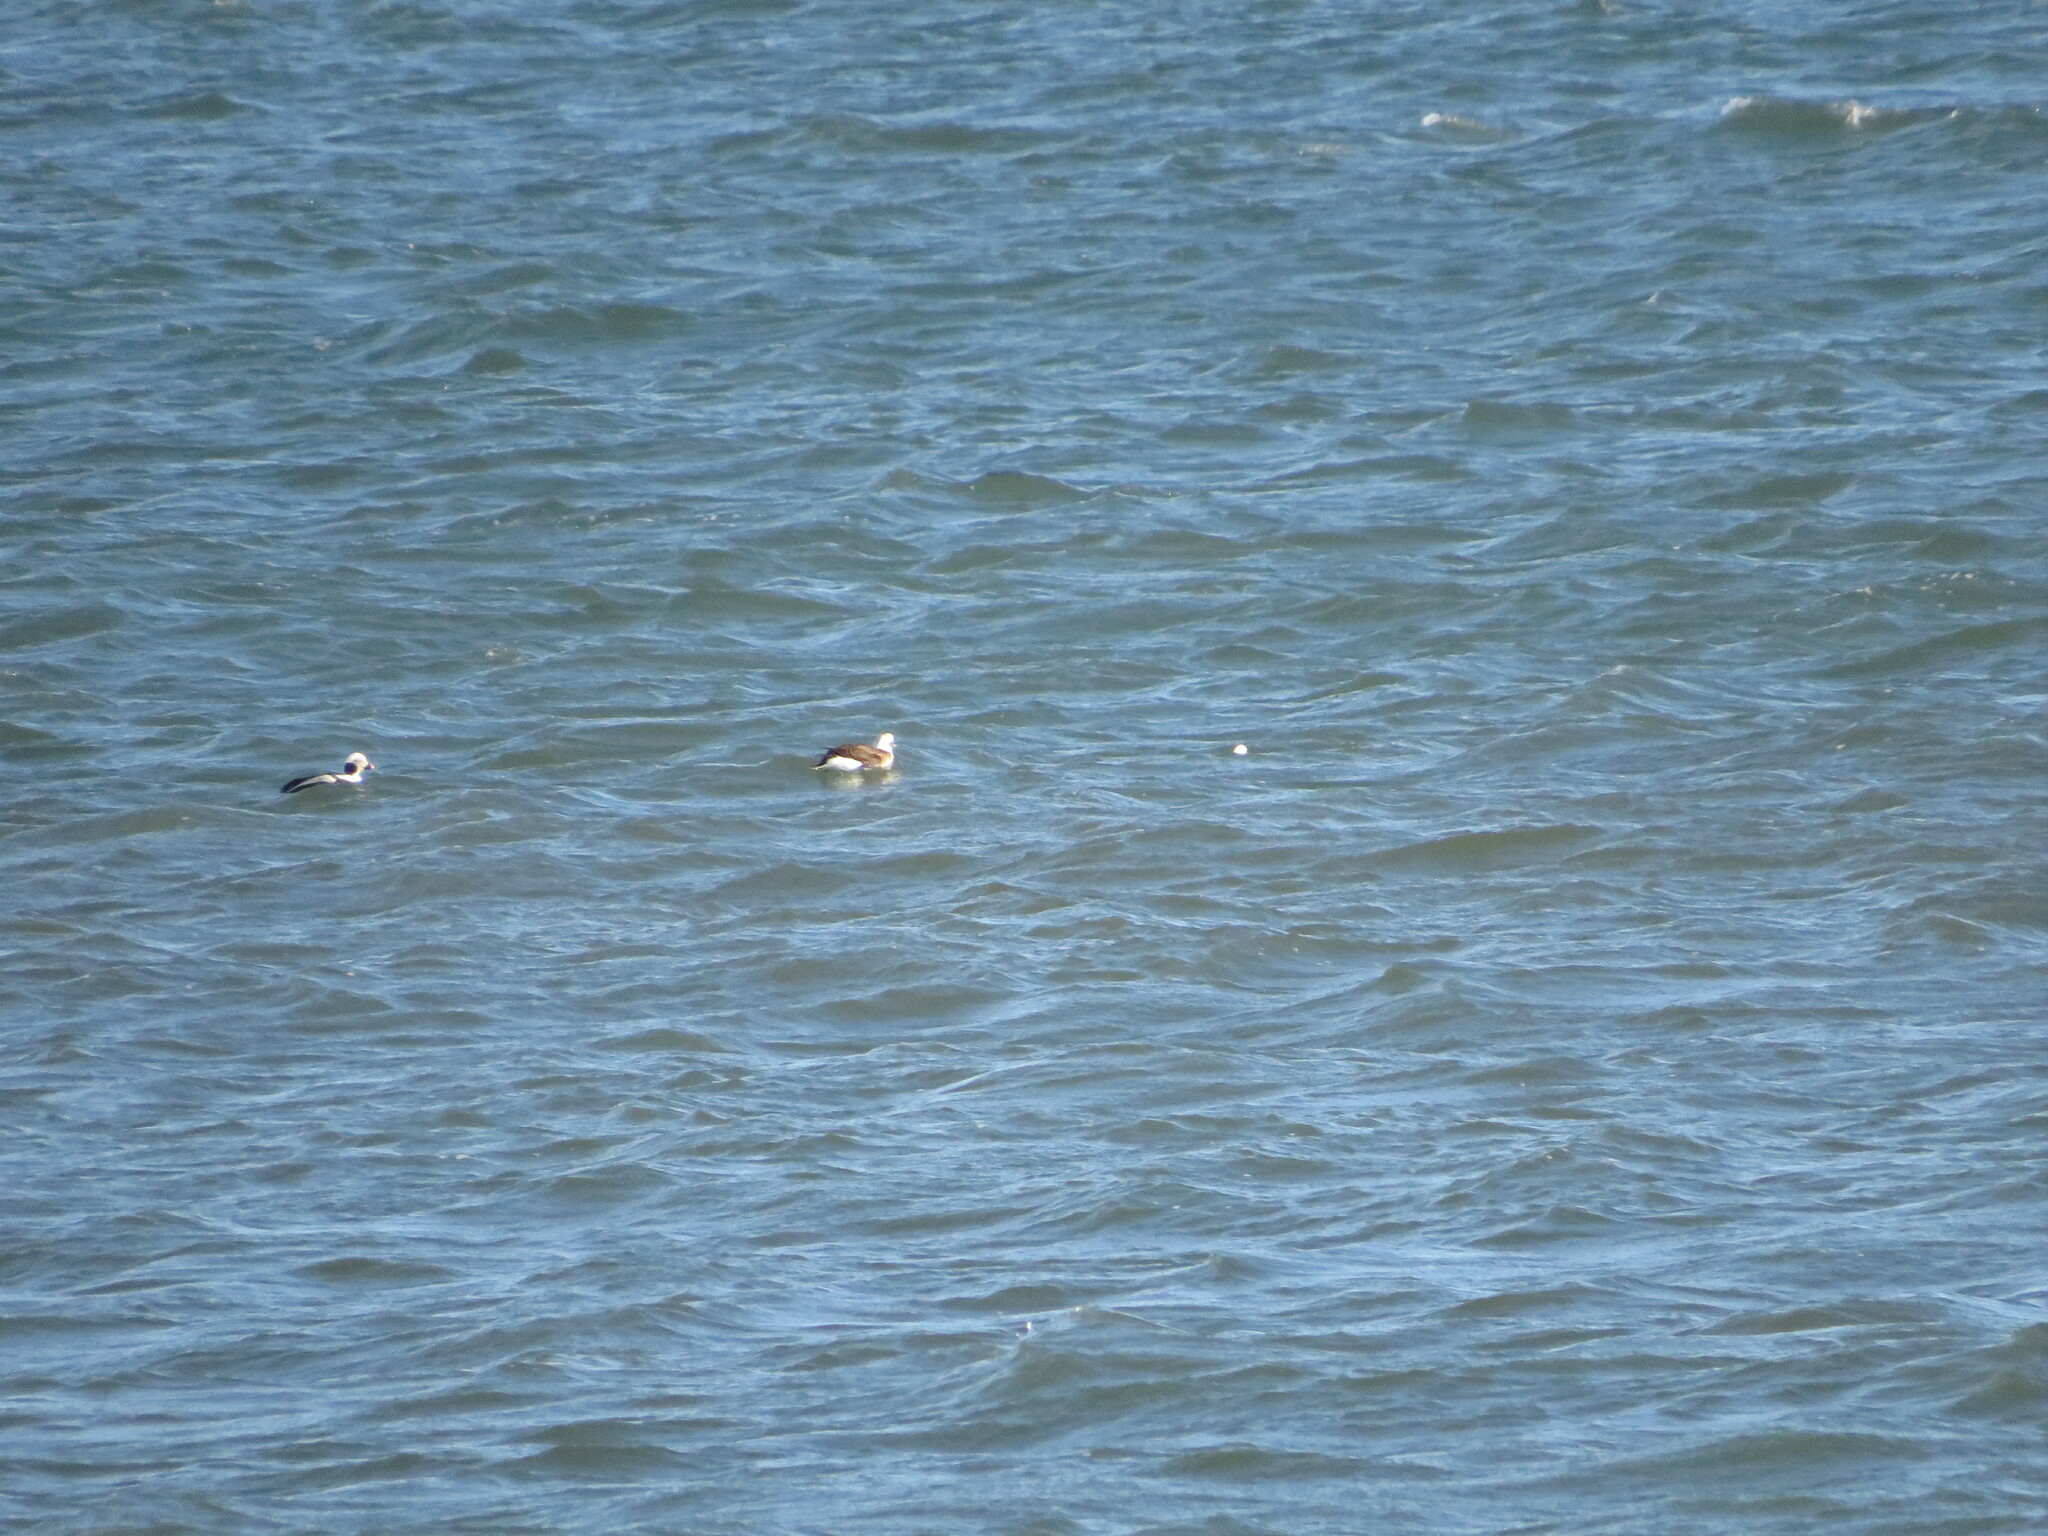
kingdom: Animalia
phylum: Chordata
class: Aves
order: Anseriformes
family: Anatidae
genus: Clangula
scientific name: Clangula hyemalis
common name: Long-tailed duck
